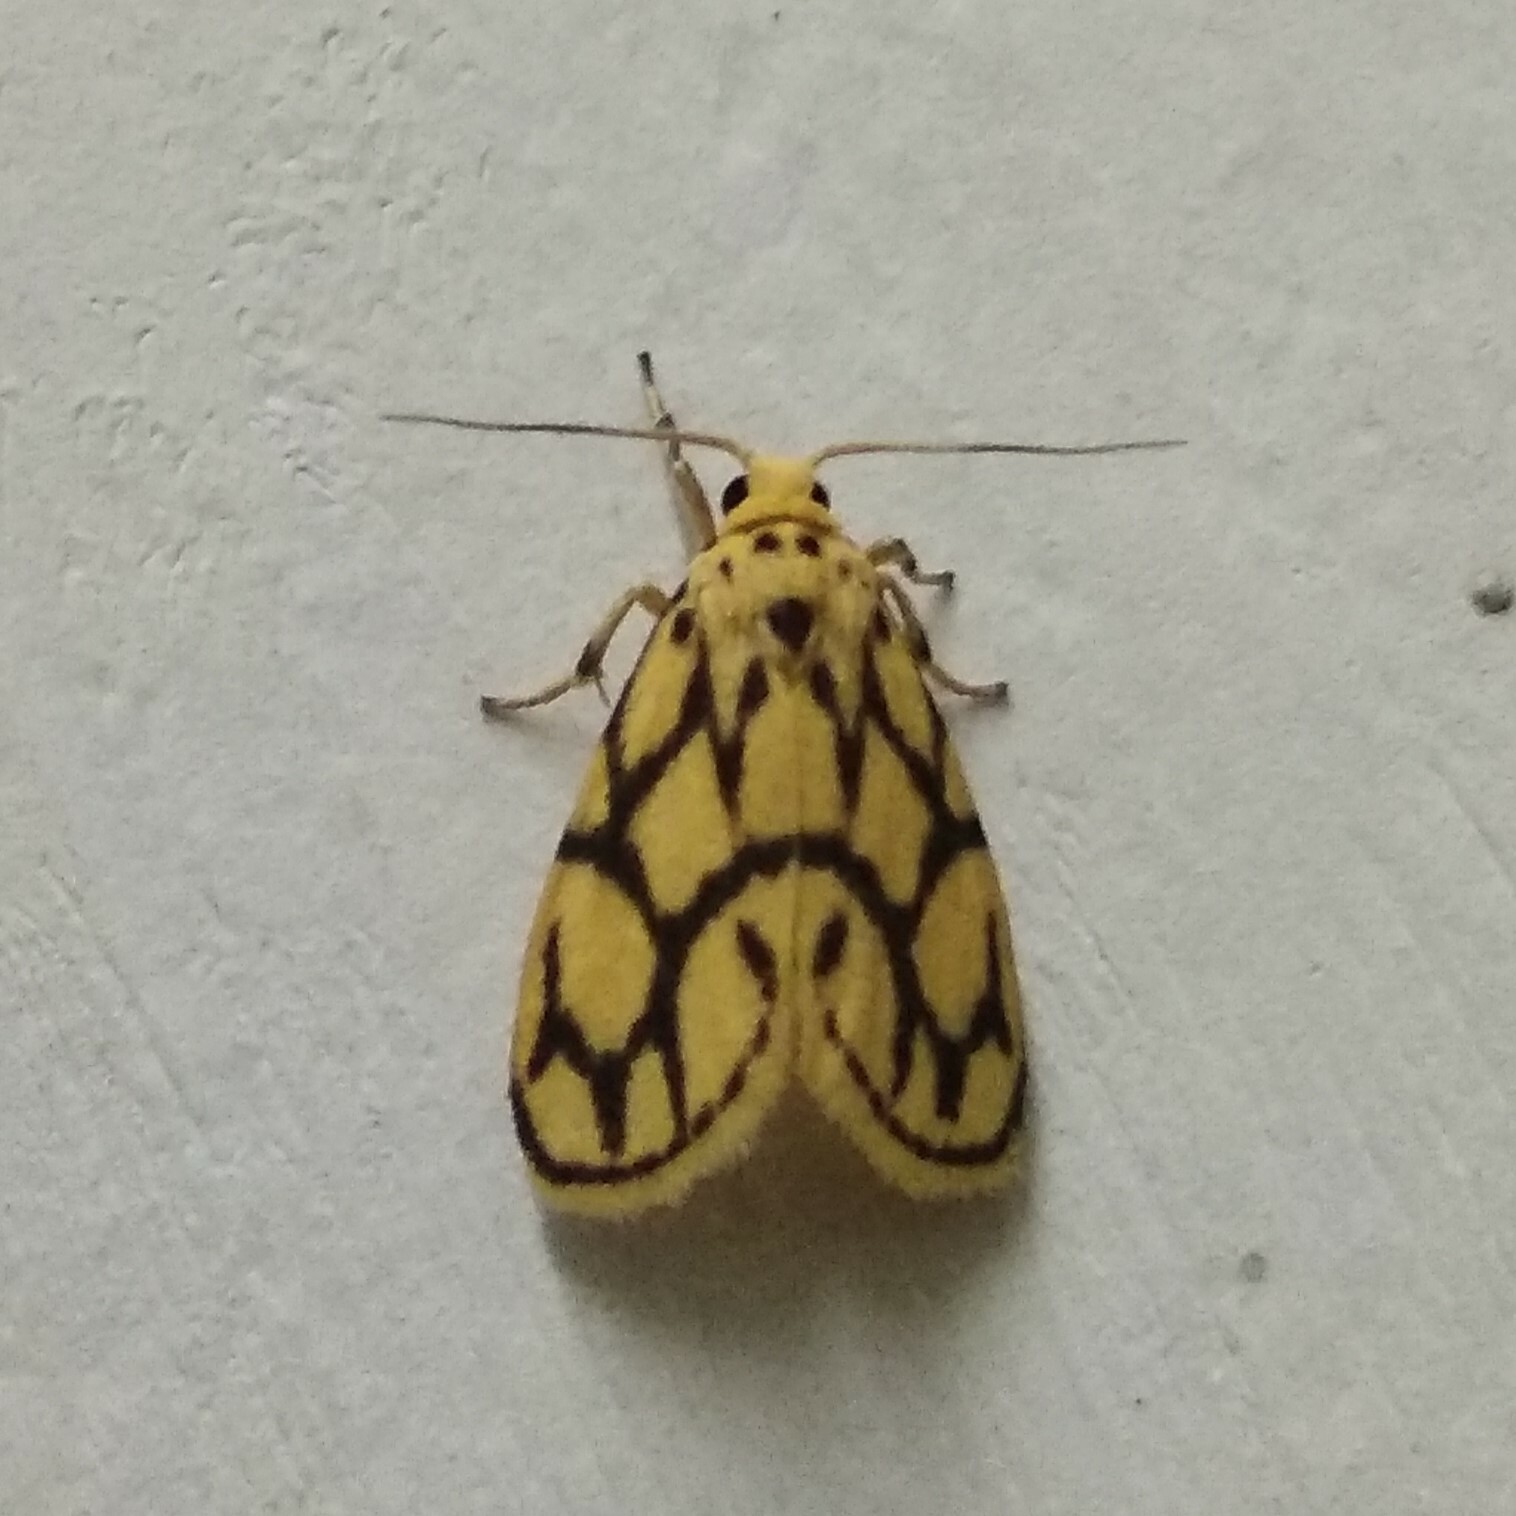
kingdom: Animalia
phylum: Arthropoda
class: Insecta
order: Lepidoptera
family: Erebidae
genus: Miltochrista
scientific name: Miltochrista conjunctana
